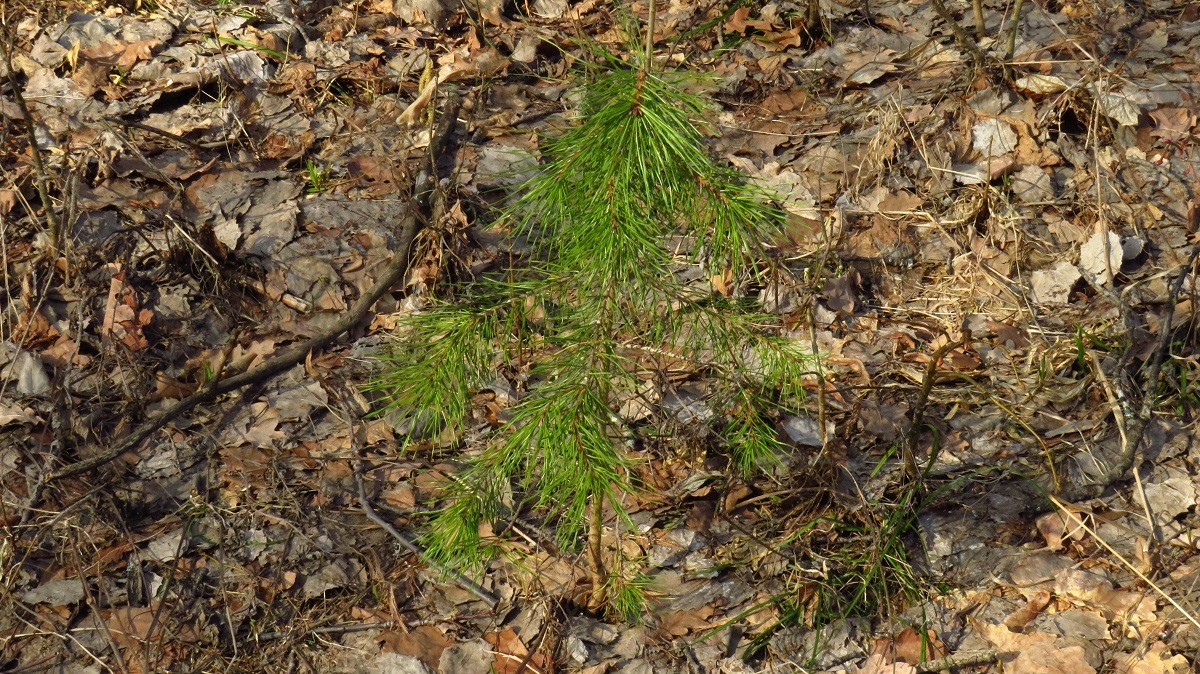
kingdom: Plantae
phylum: Tracheophyta
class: Pinopsida
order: Pinales
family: Pinaceae
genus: Pinus
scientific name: Pinus sylvestris
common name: Scots pine
